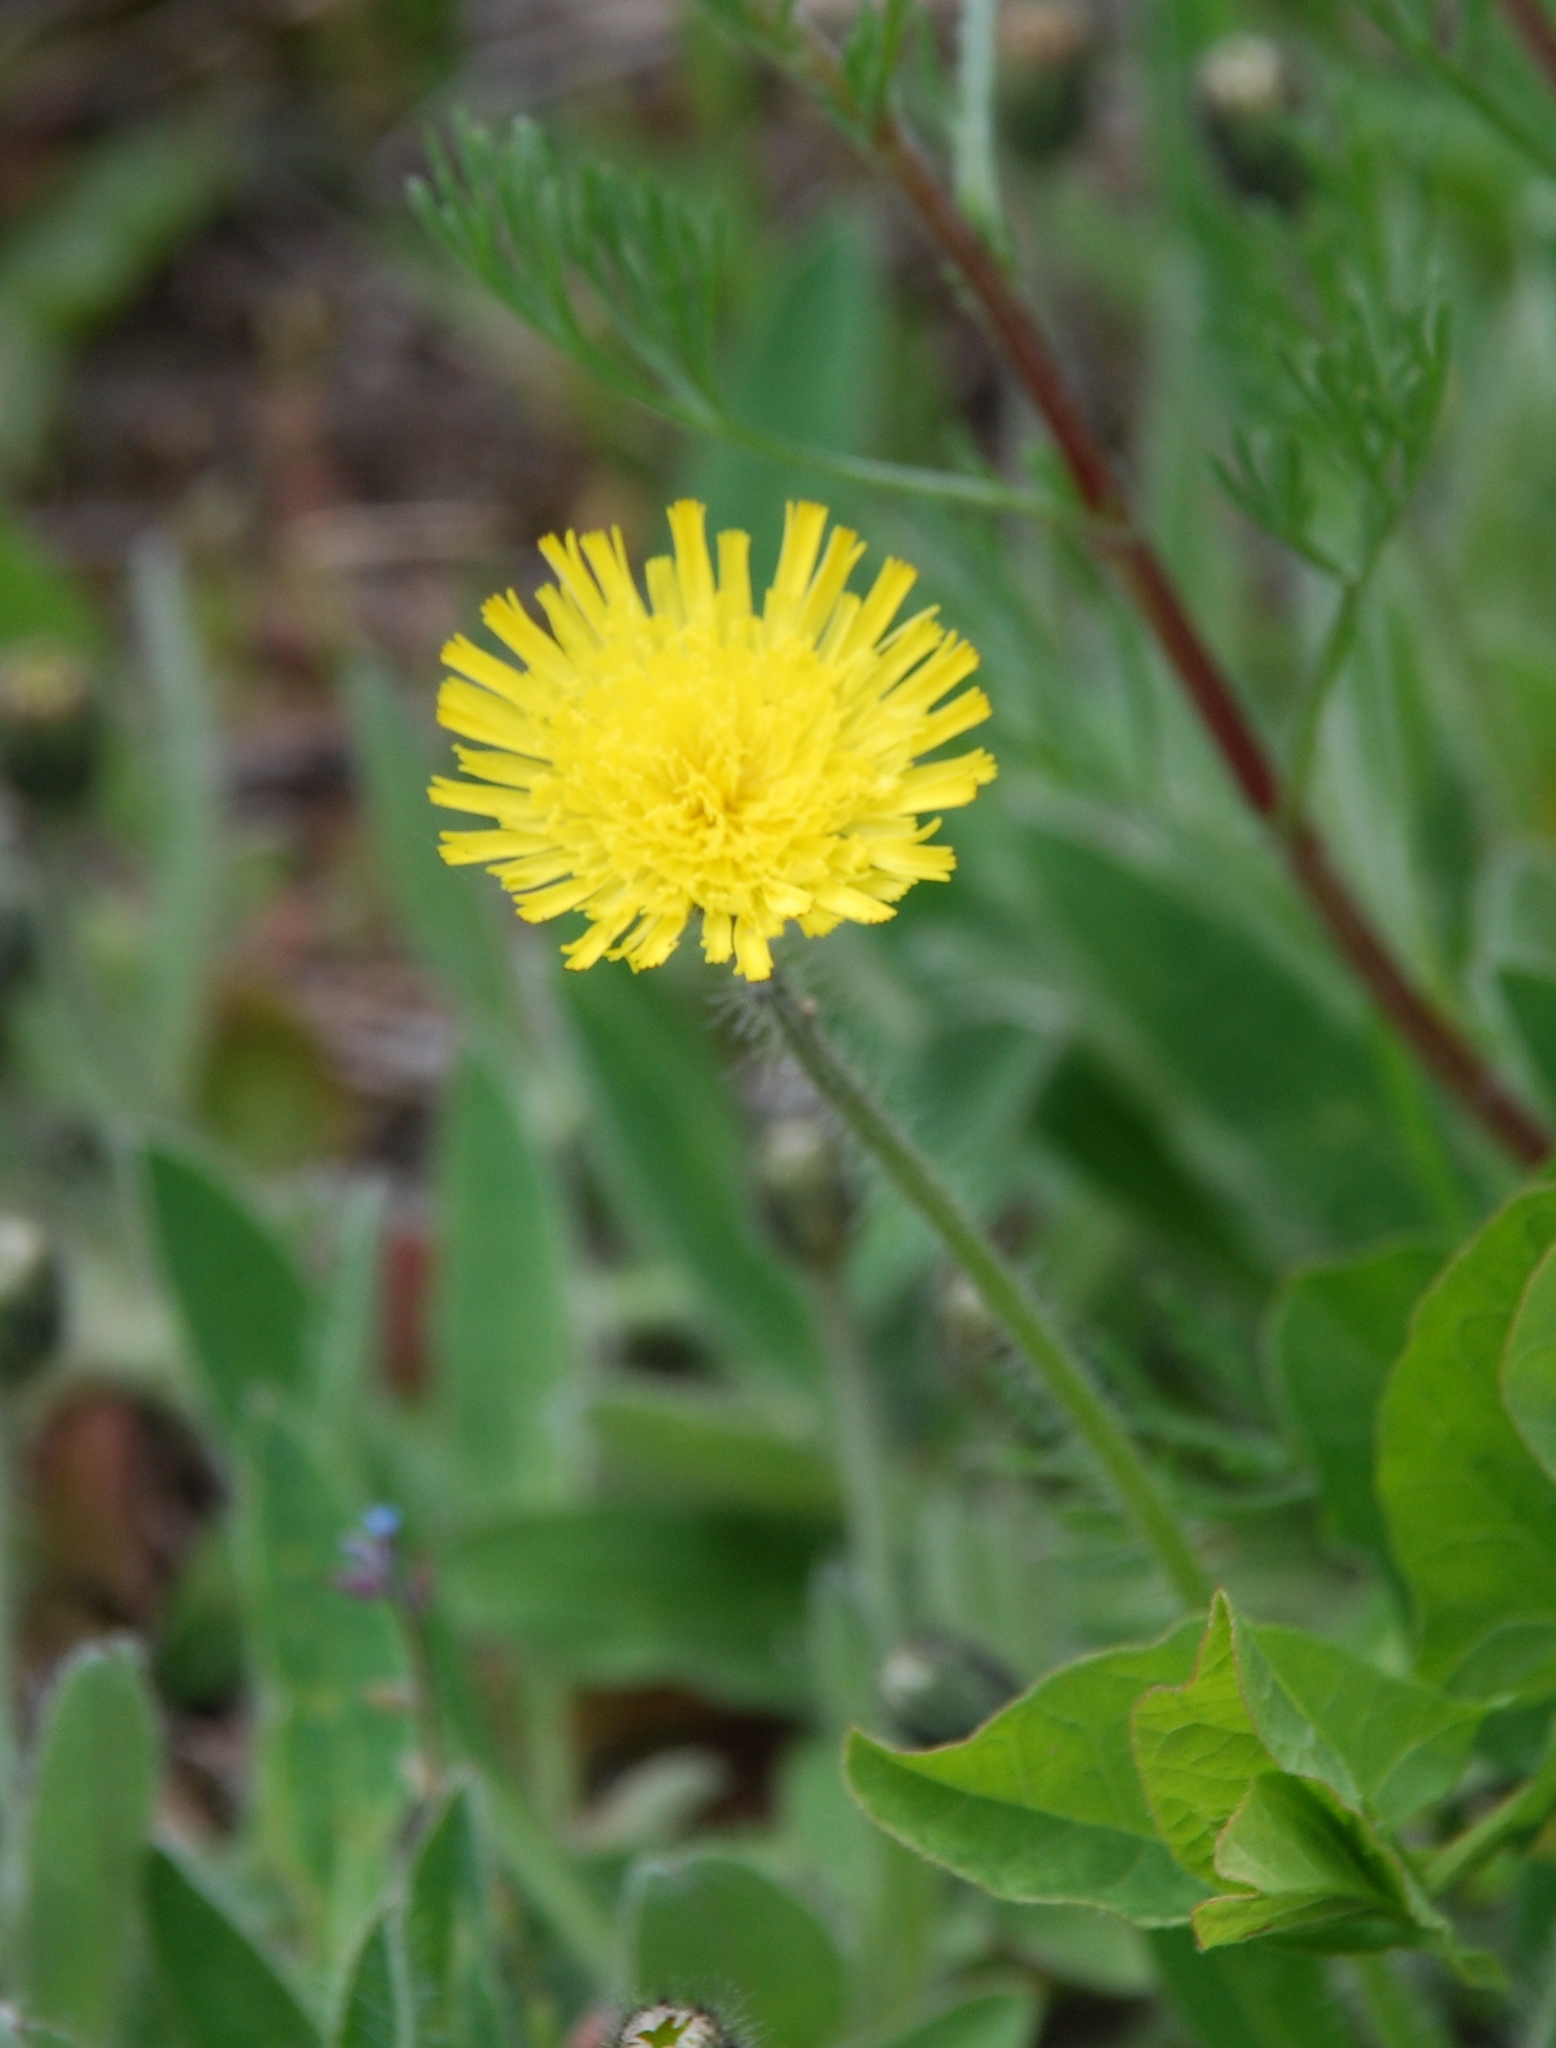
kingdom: Plantae
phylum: Tracheophyta
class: Magnoliopsida
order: Asterales
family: Asteraceae
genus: Pilosella
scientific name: Pilosella officinarum
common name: Mouse-ear hawkweed
